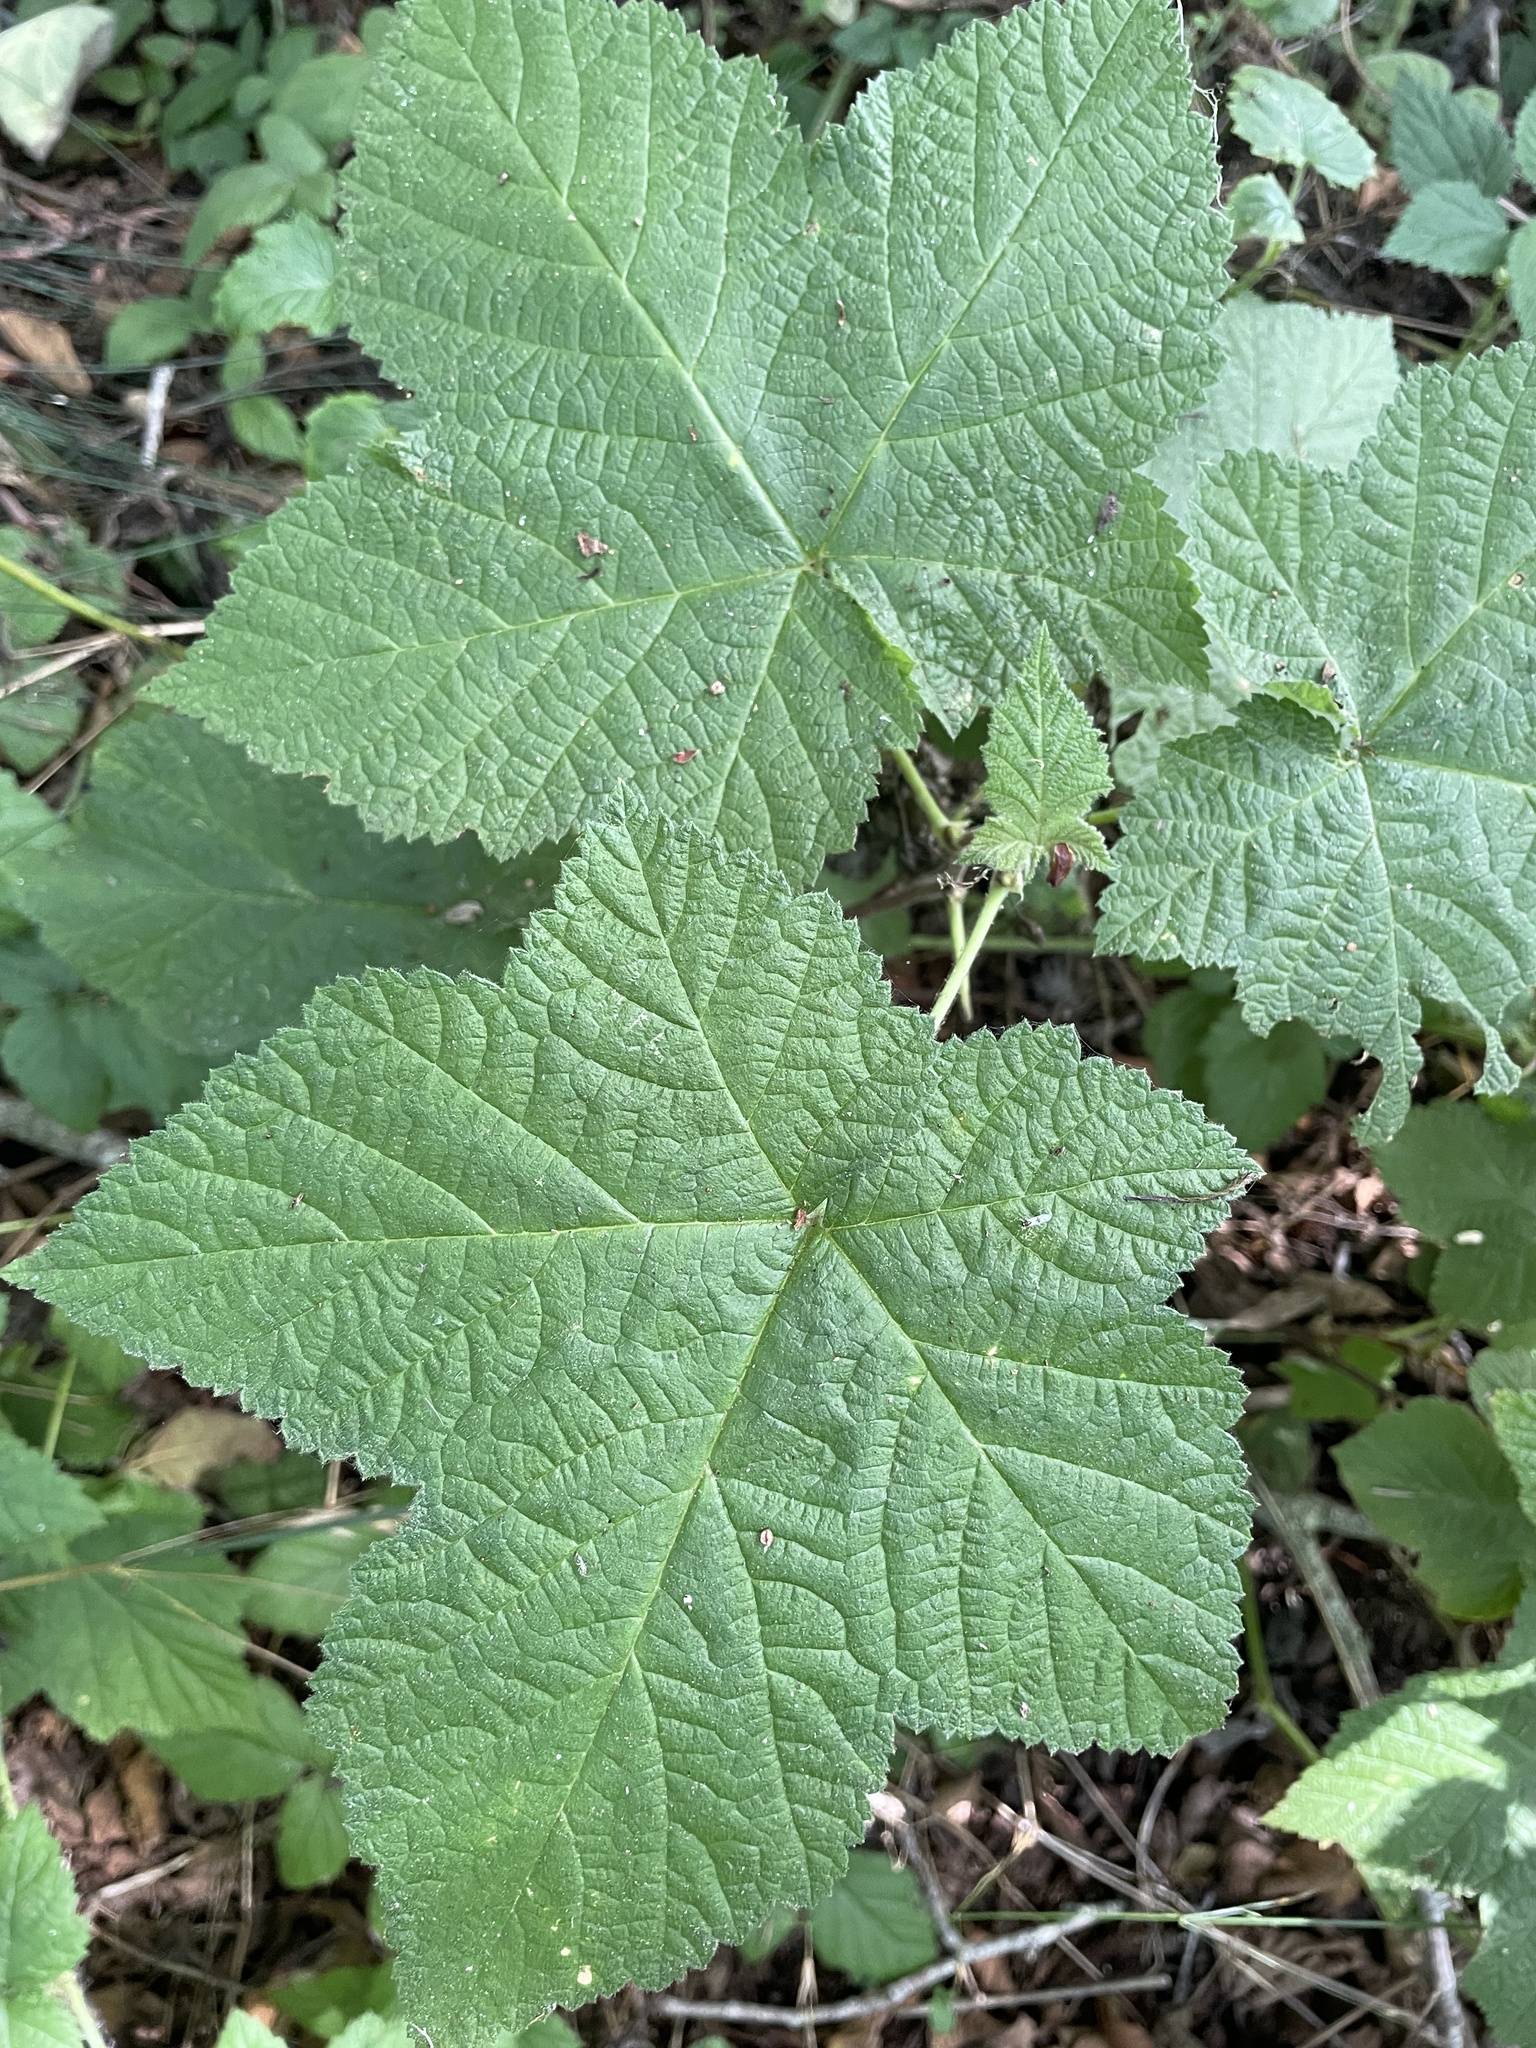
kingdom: Plantae
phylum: Tracheophyta
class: Magnoliopsida
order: Rosales
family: Rosaceae
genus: Rubus
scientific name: Rubus parviflorus
